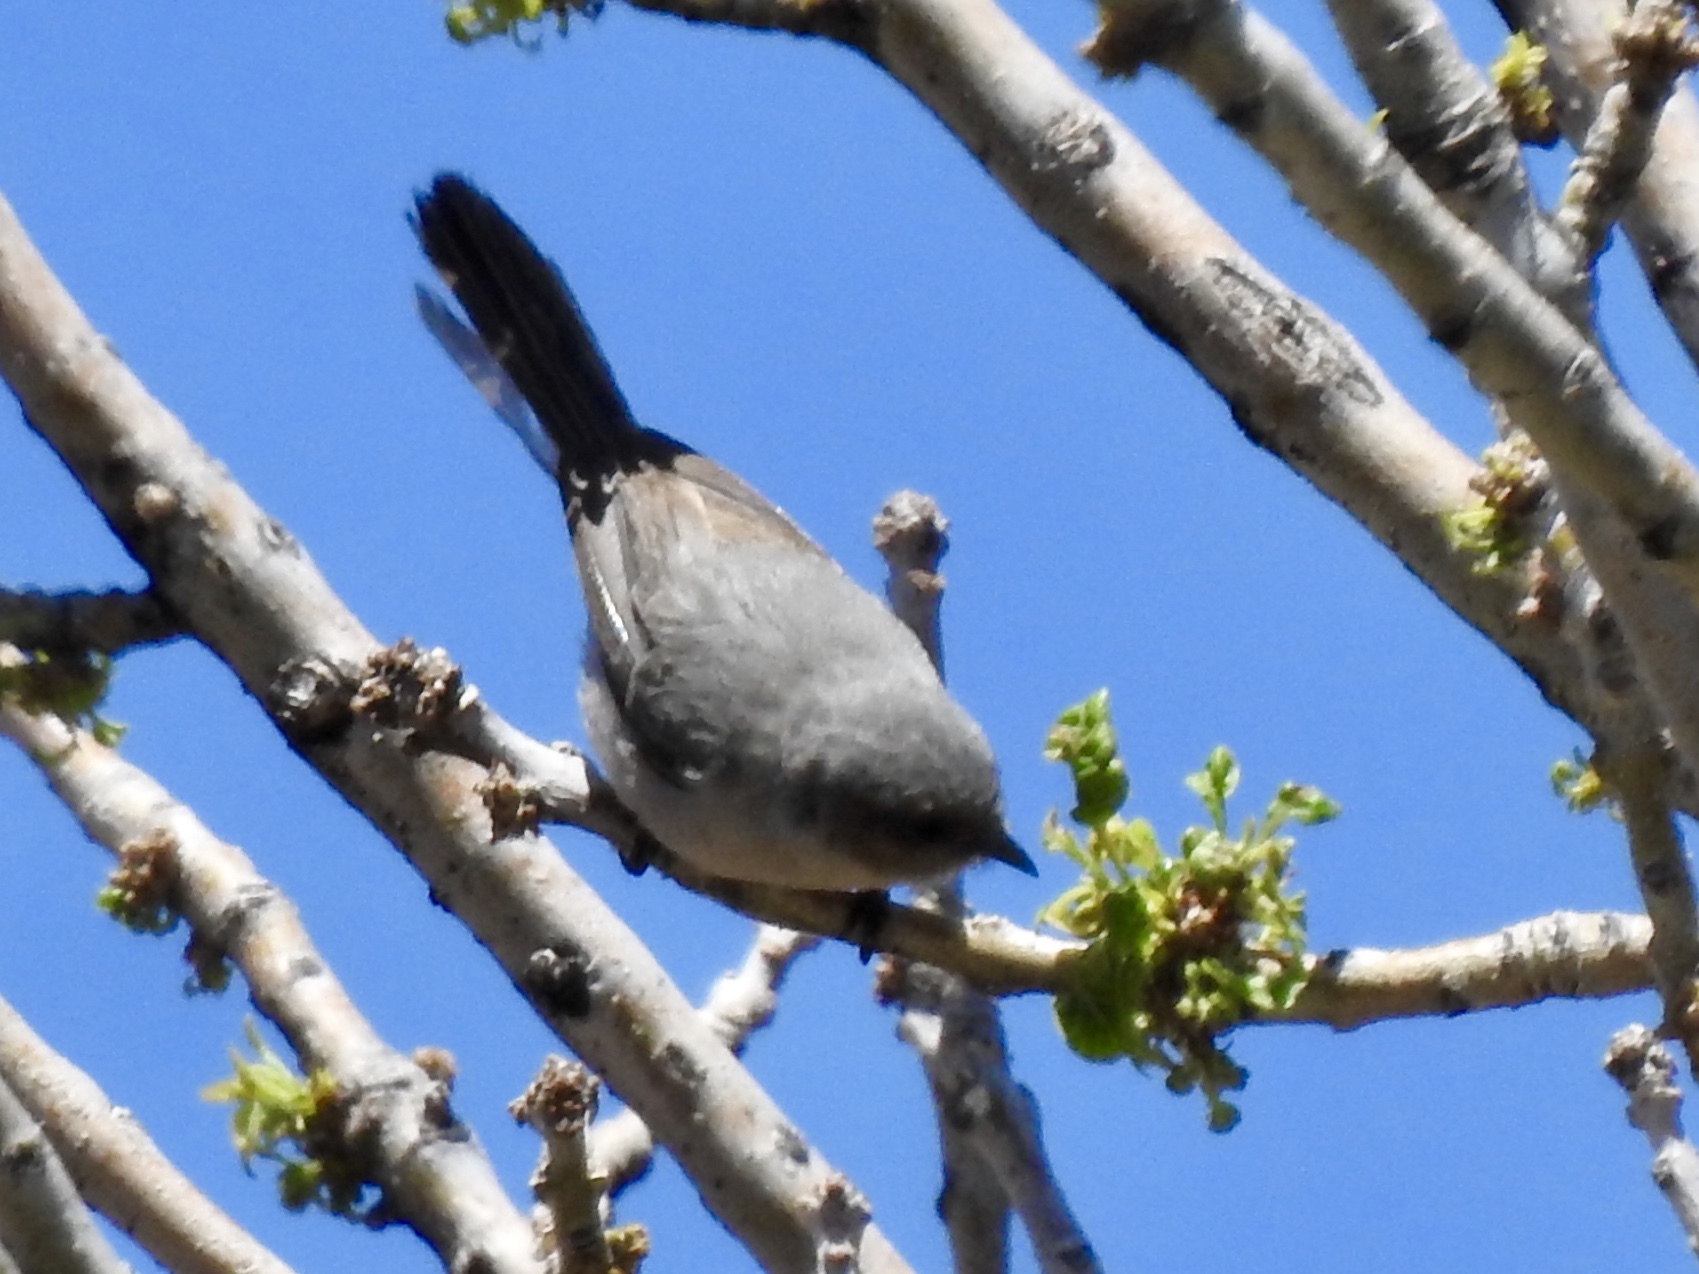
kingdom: Animalia
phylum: Chordata
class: Aves
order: Passeriformes
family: Aegithalidae
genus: Psaltriparus
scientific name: Psaltriparus minimus
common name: American bushtit
